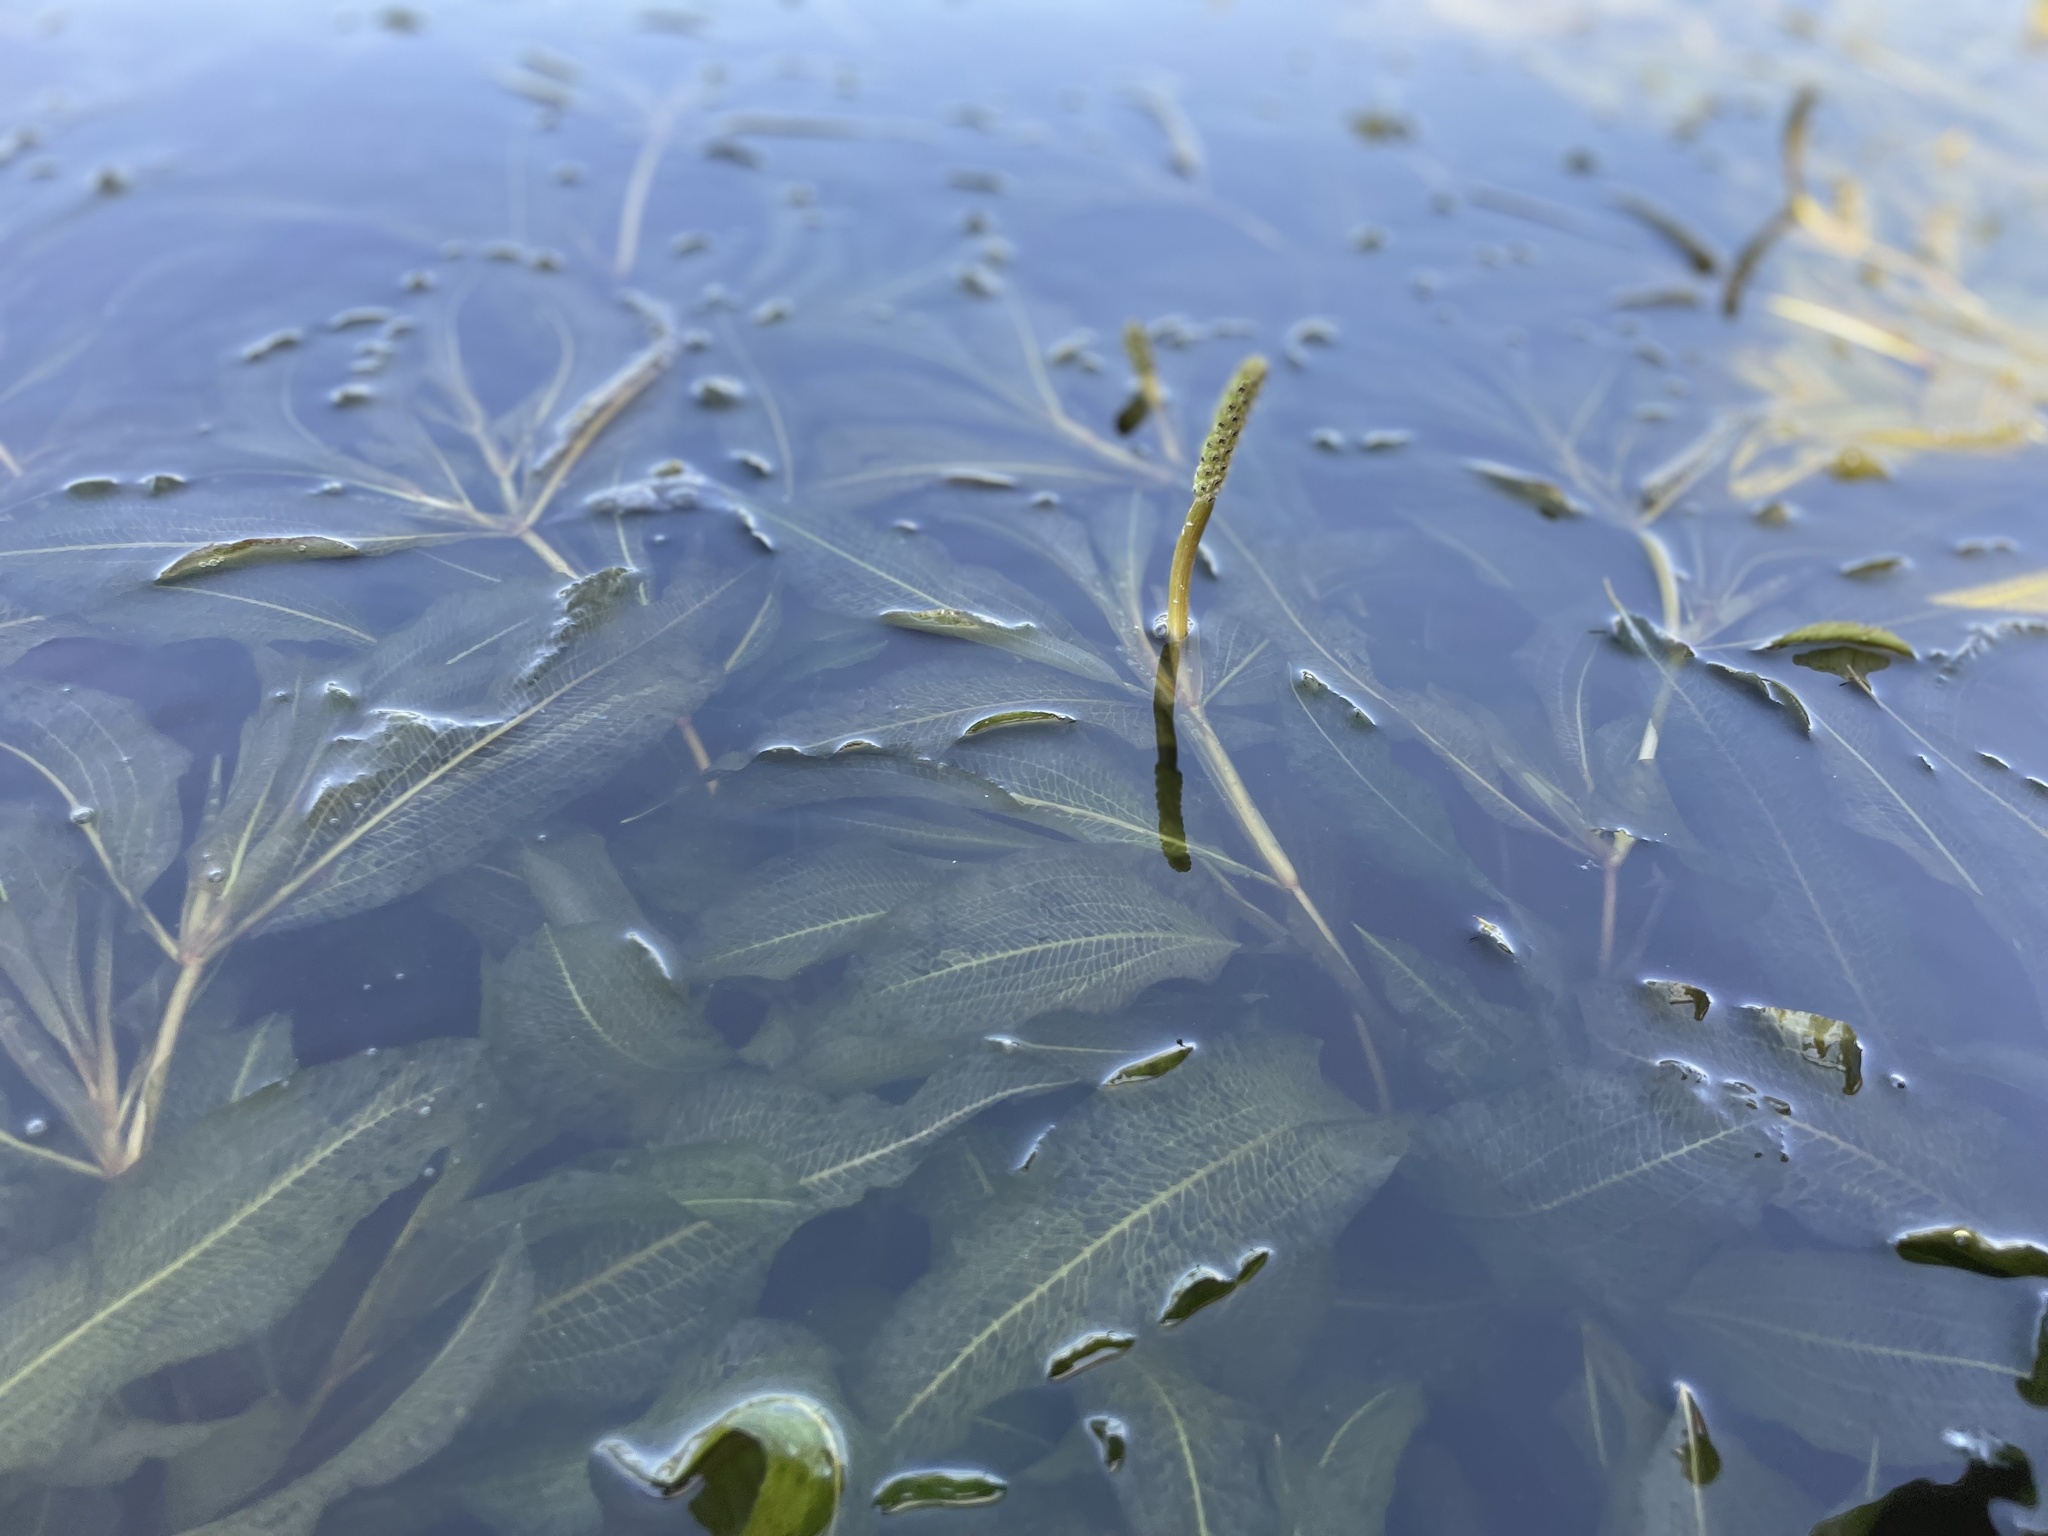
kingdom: Plantae
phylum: Tracheophyta
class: Liliopsida
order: Alismatales
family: Potamogetonaceae
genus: Potamogeton
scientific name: Potamogeton lucens
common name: Shining pondweed
